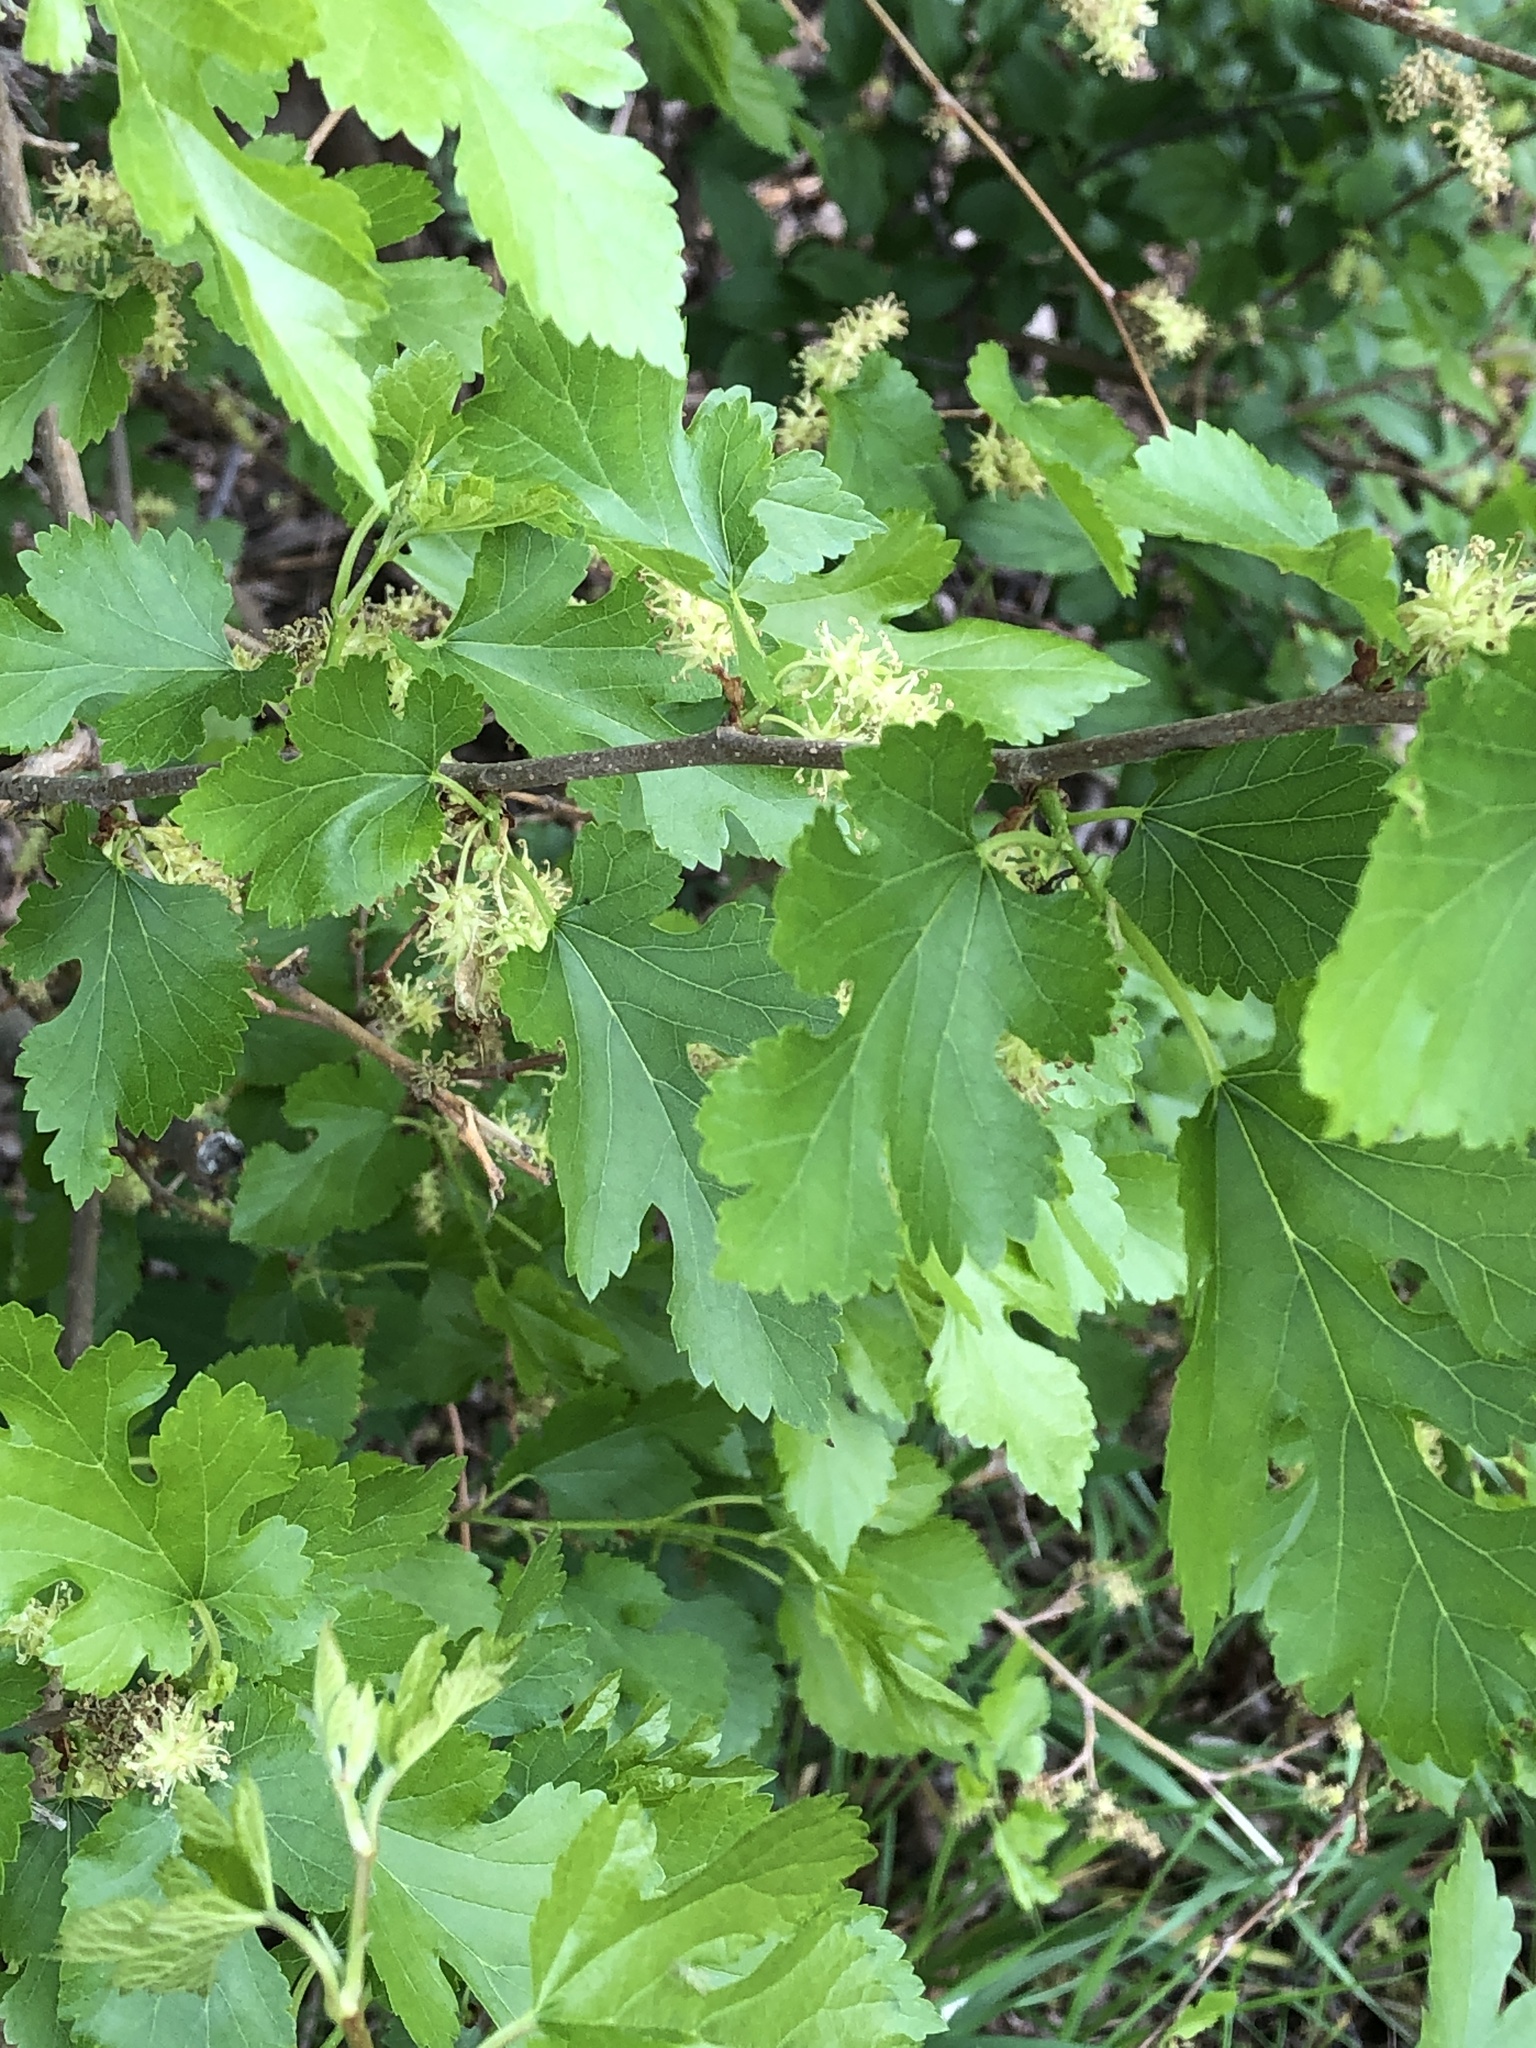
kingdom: Plantae
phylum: Tracheophyta
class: Magnoliopsida
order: Rosales
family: Moraceae
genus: Morus
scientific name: Morus alba
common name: White mulberry
